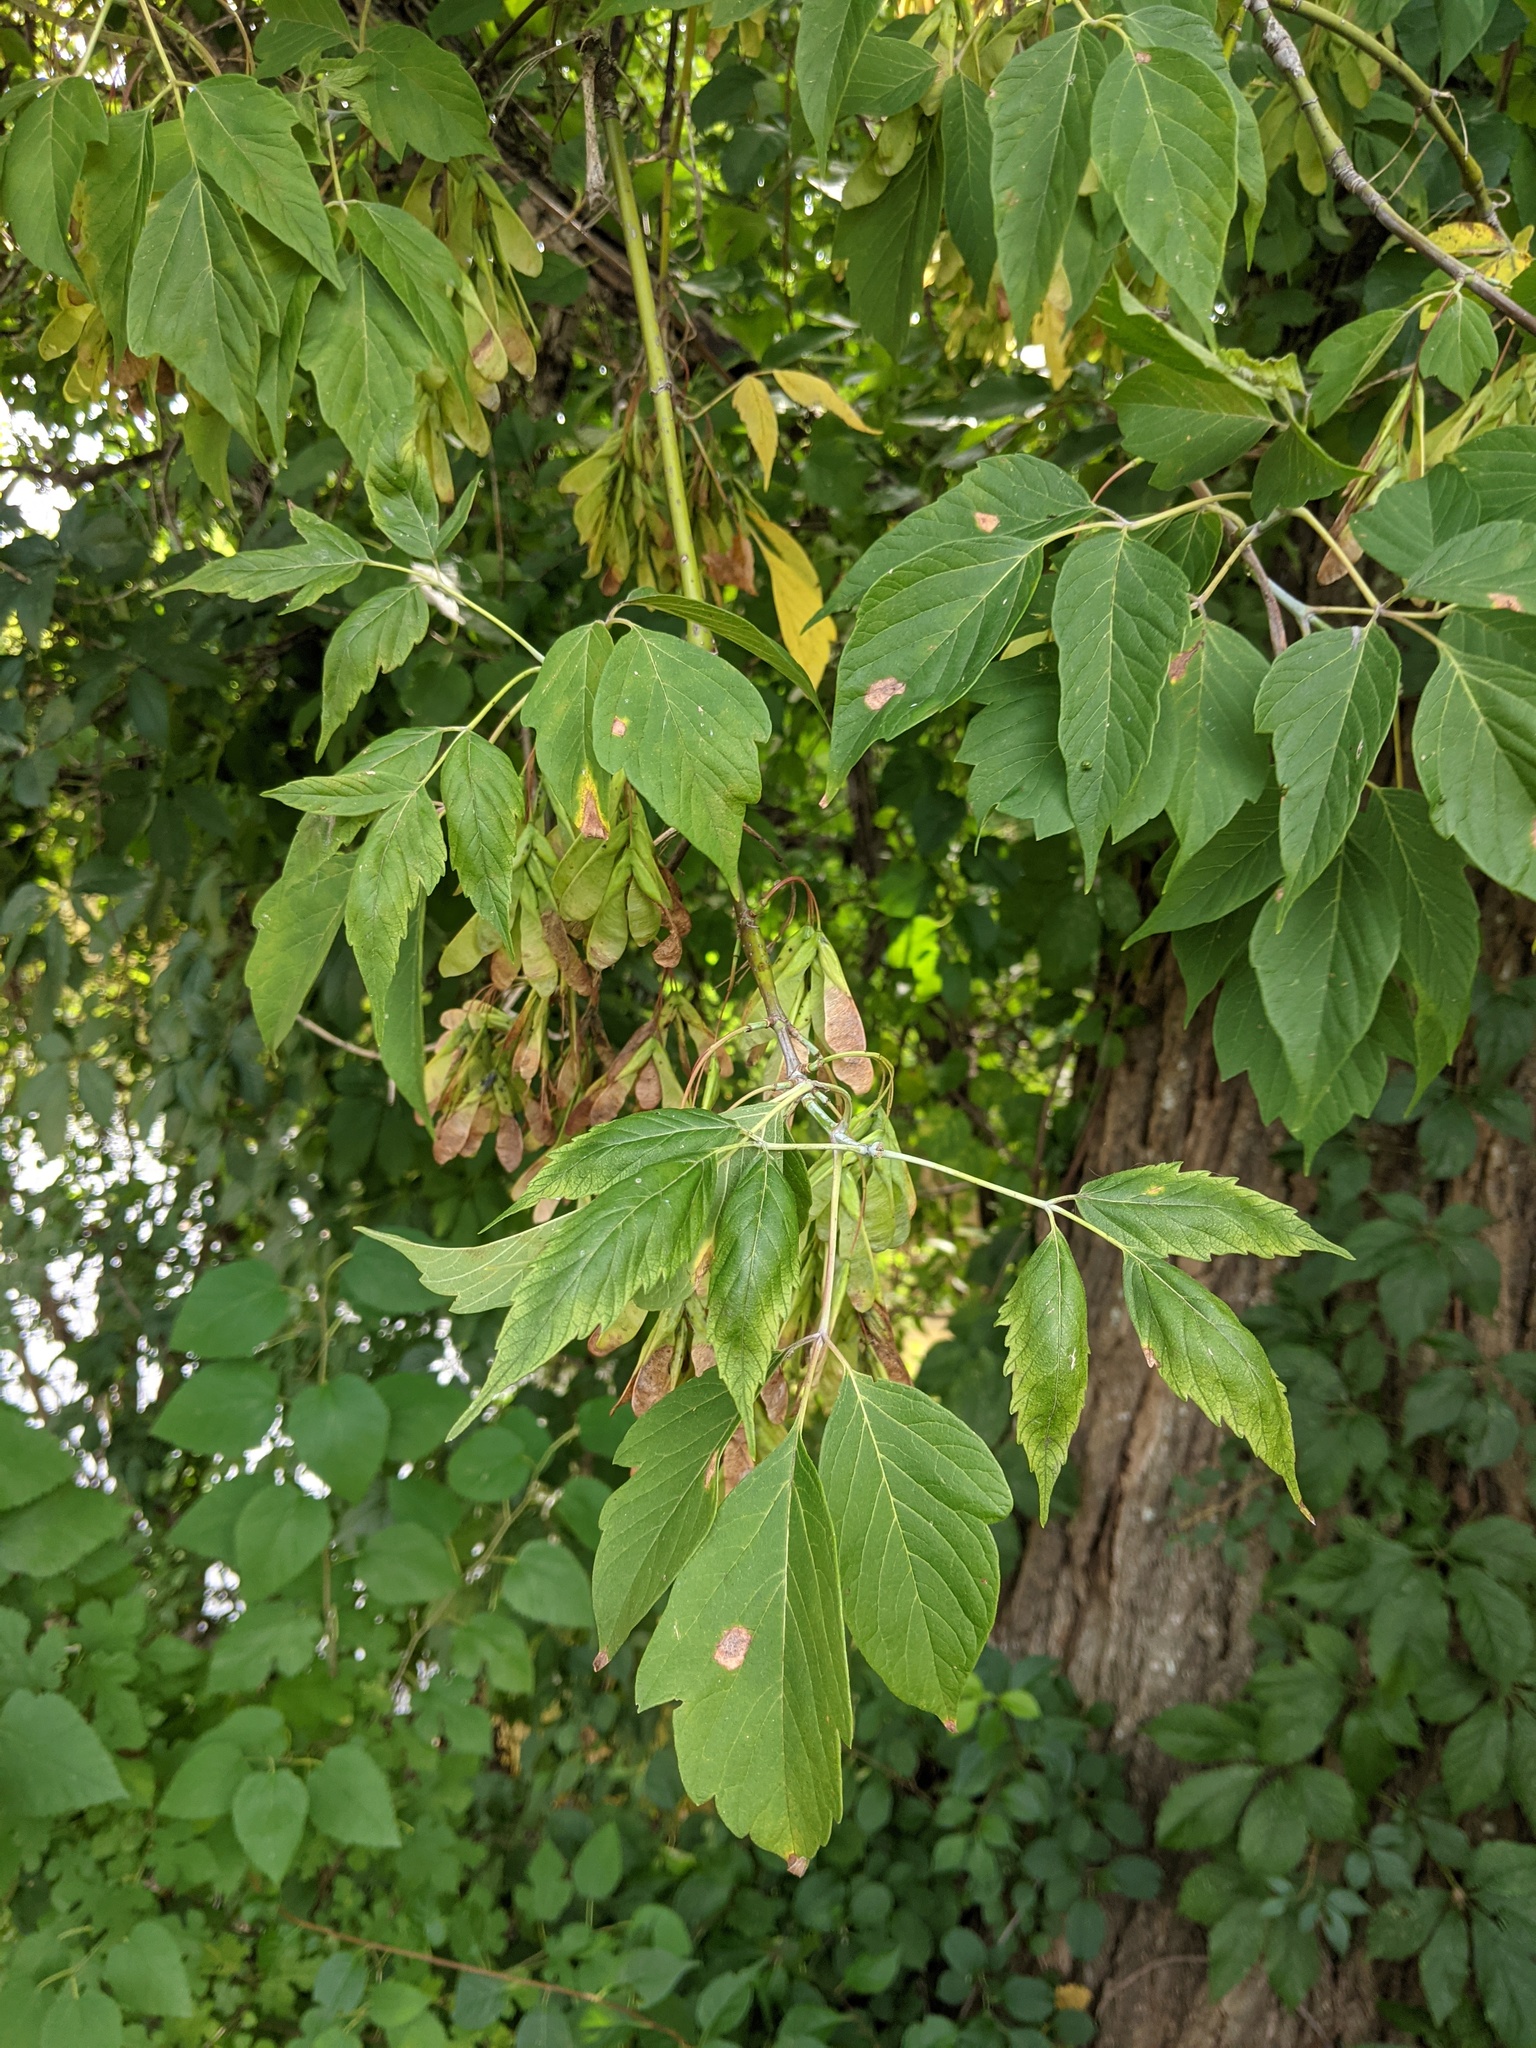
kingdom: Plantae
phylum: Tracheophyta
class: Magnoliopsida
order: Sapindales
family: Sapindaceae
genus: Acer
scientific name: Acer negundo
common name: Ashleaf maple
